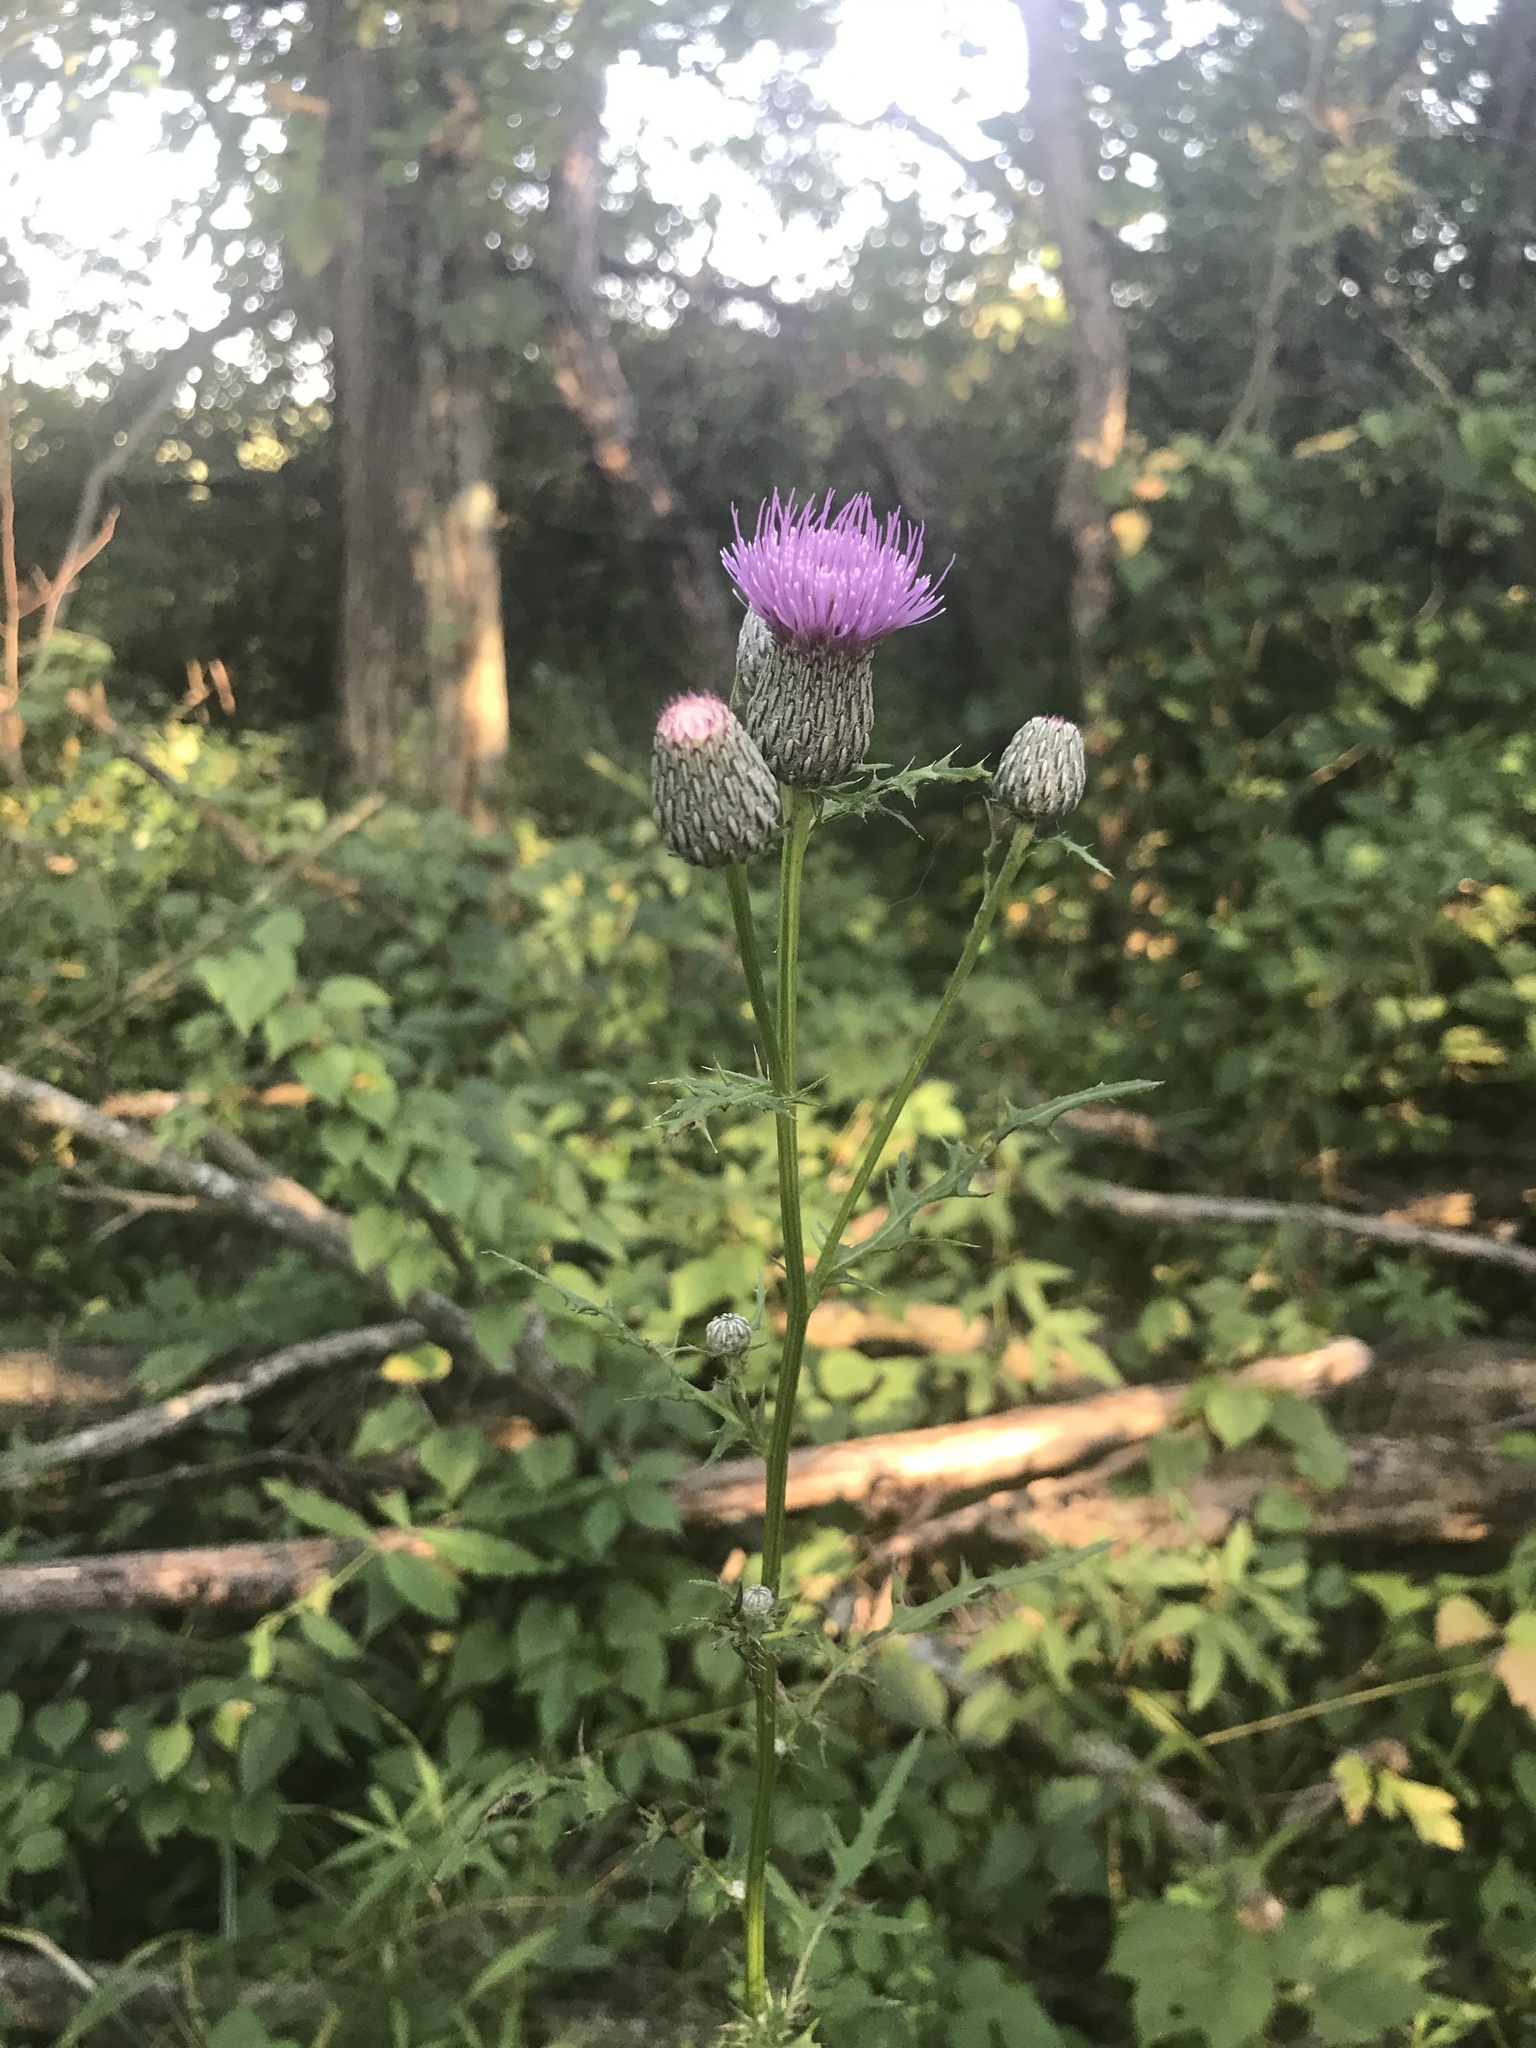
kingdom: Plantae
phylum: Tracheophyta
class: Magnoliopsida
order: Asterales
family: Asteraceae
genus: Cirsium
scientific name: Cirsium muticum
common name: Dunce-nettle
